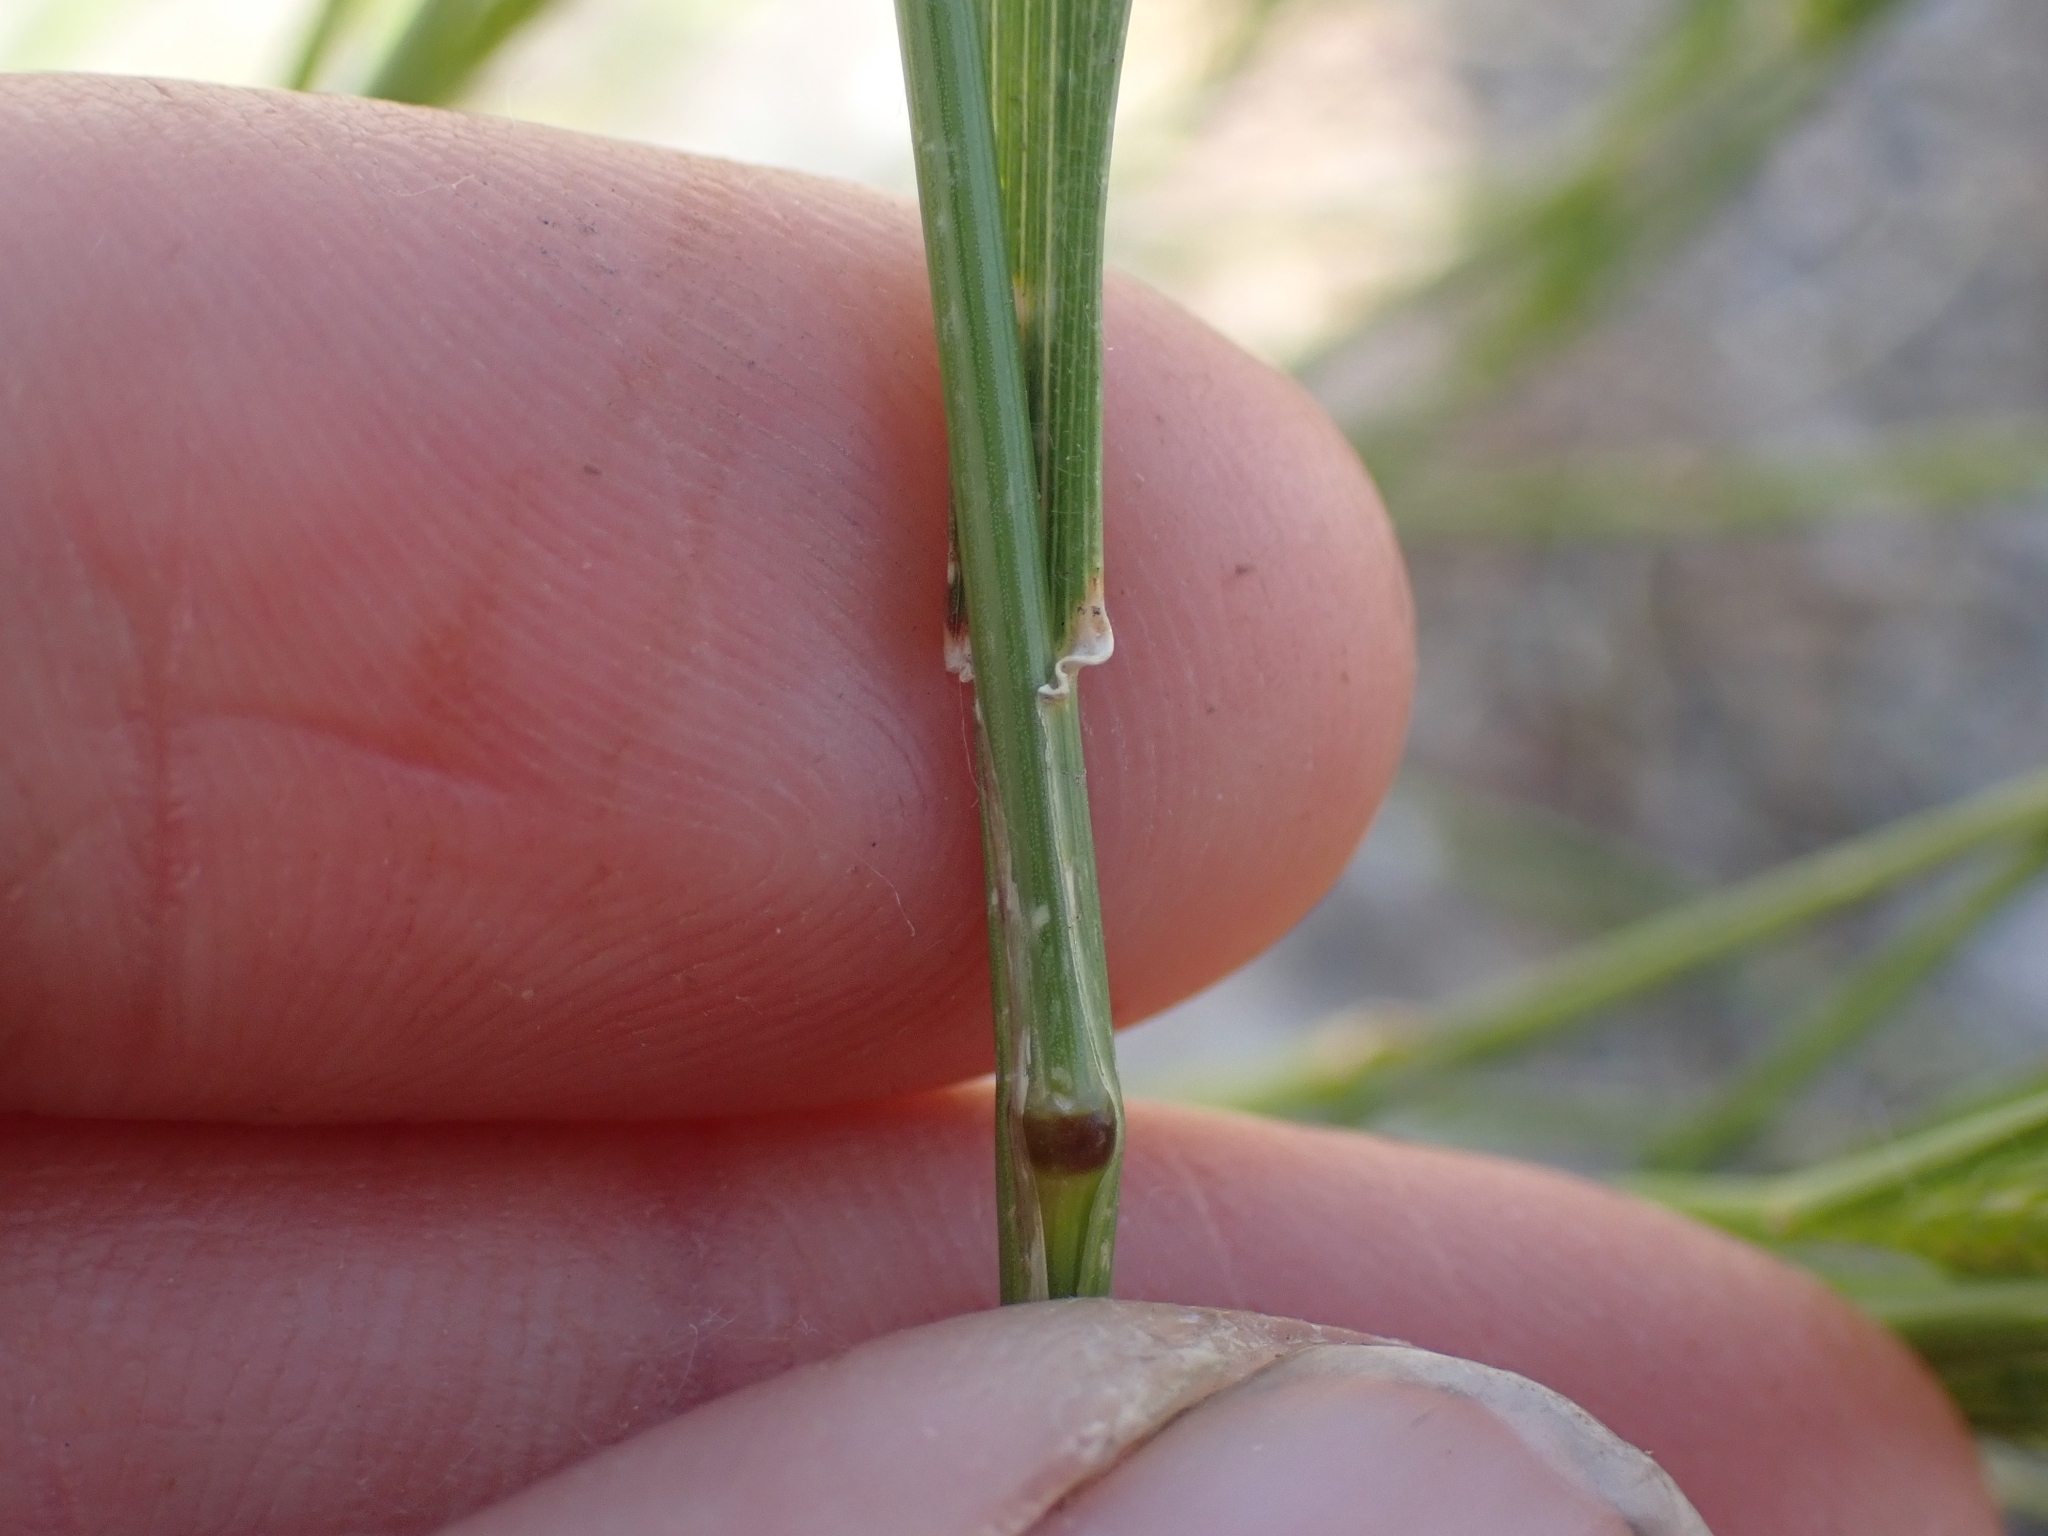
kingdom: Plantae
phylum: Tracheophyta
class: Liliopsida
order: Poales
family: Poaceae
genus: Agropyron
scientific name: Agropyron cristatum
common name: Crested wheatgrass
